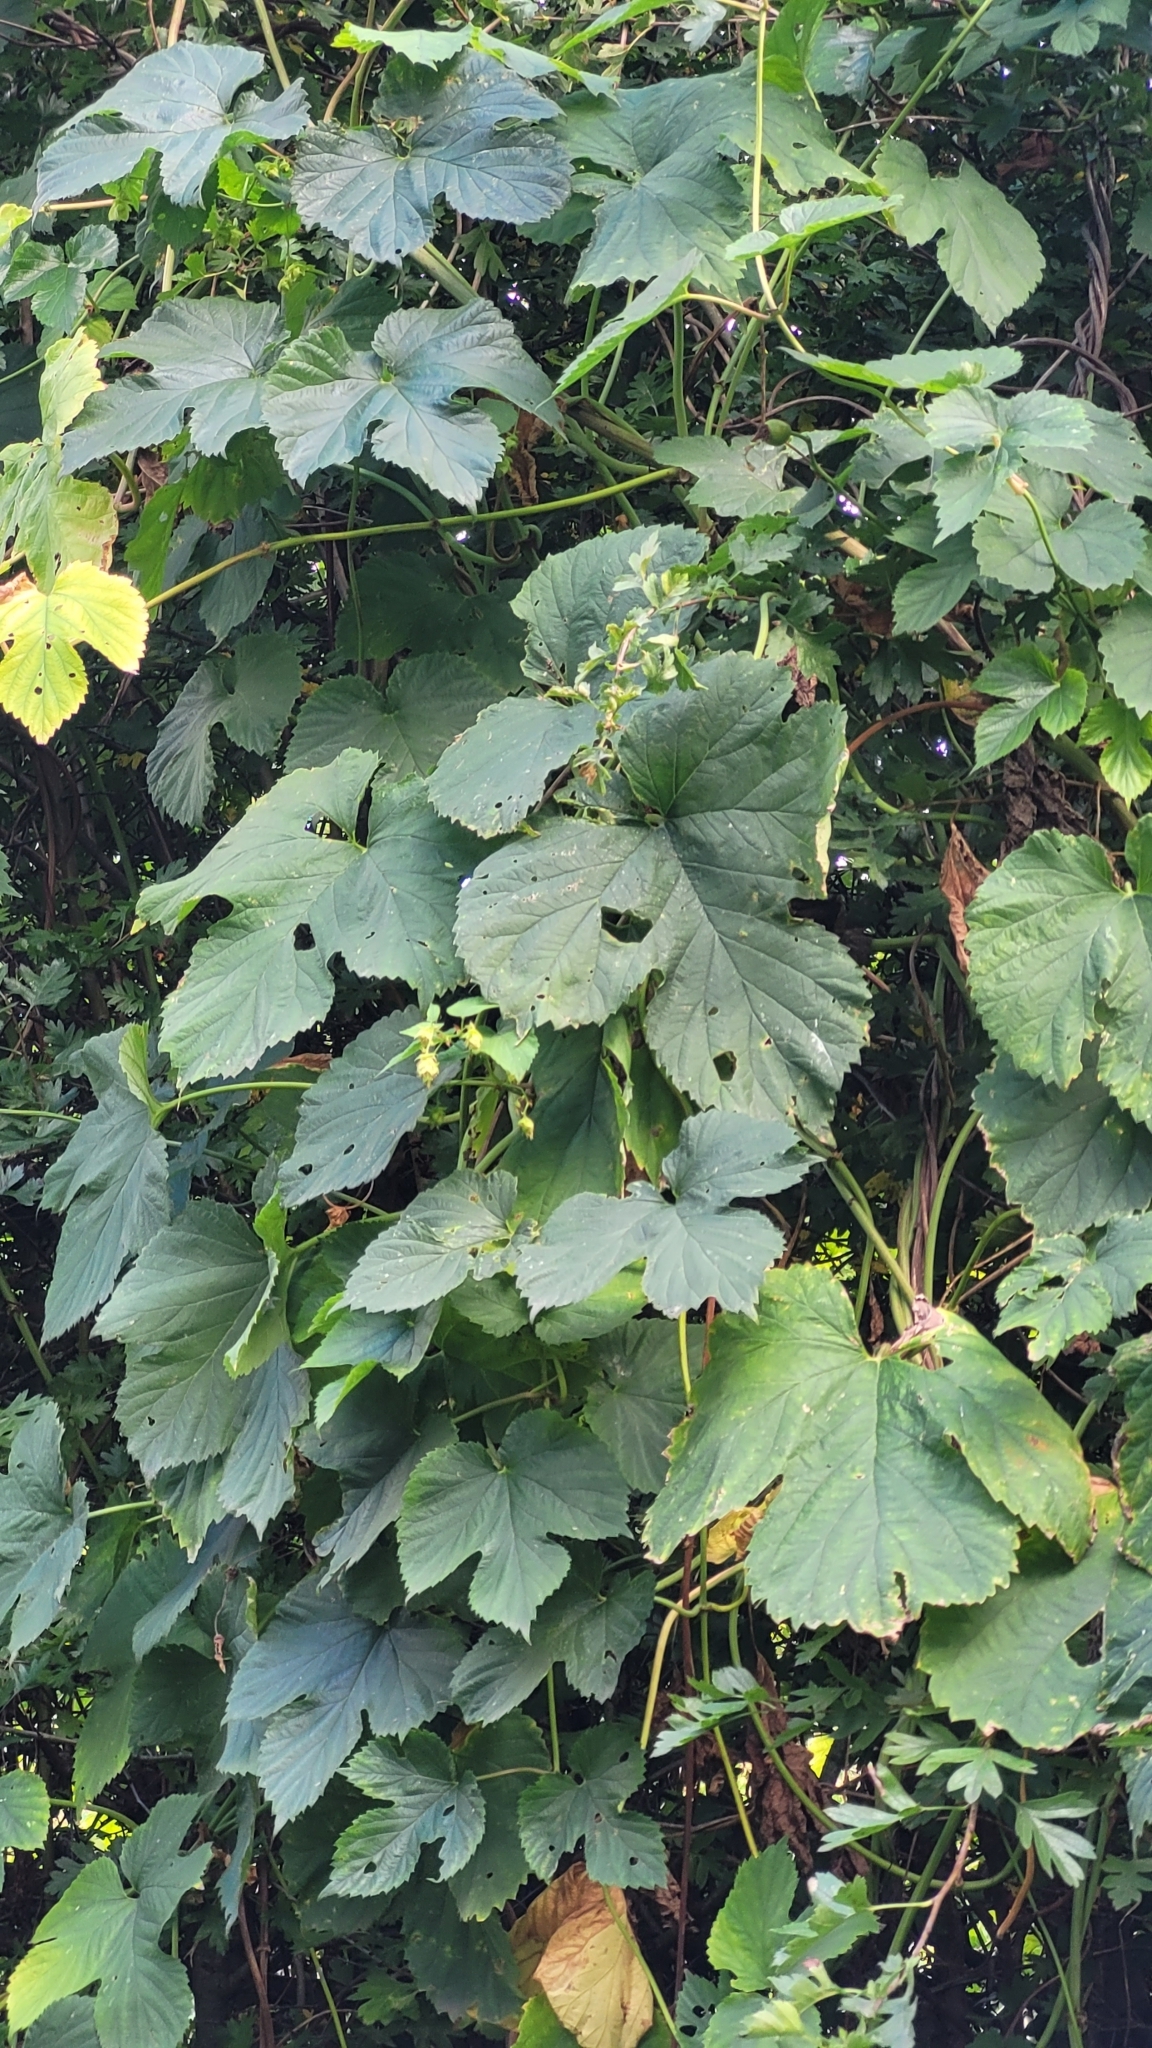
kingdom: Plantae
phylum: Tracheophyta
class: Magnoliopsida
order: Rosales
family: Cannabaceae
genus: Humulus
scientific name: Humulus lupulus
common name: Hop
